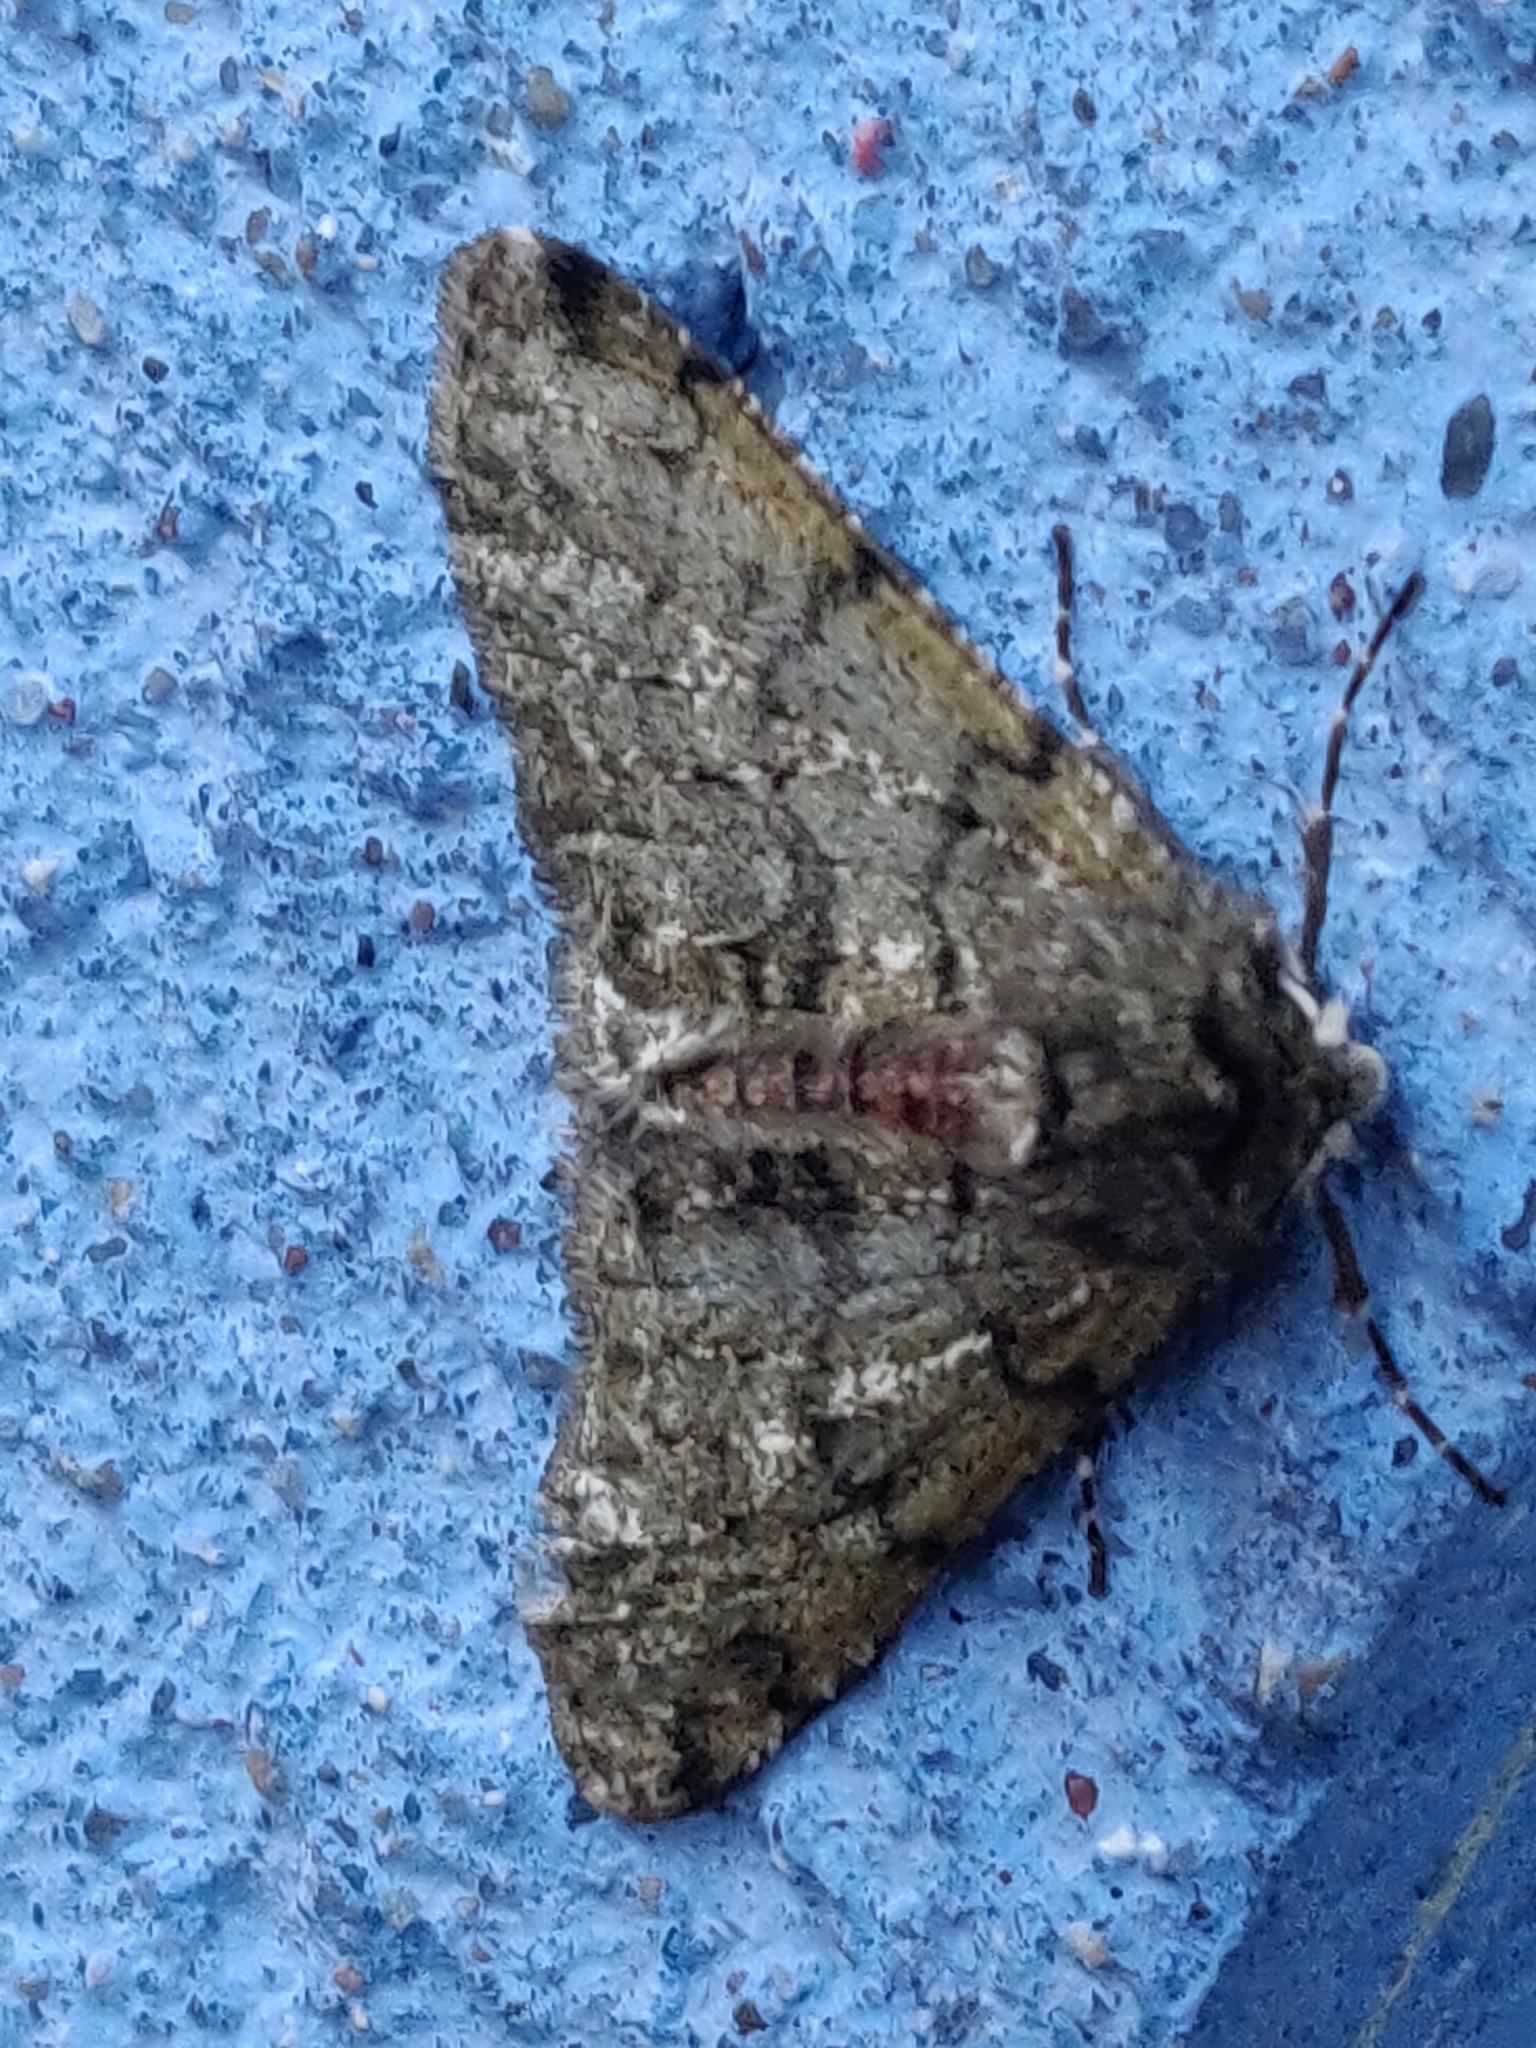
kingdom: Animalia
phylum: Arthropoda
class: Insecta
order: Lepidoptera
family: Geometridae
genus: Phigalia
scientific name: Phigalia pilosaria
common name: Pale brindled beauty
